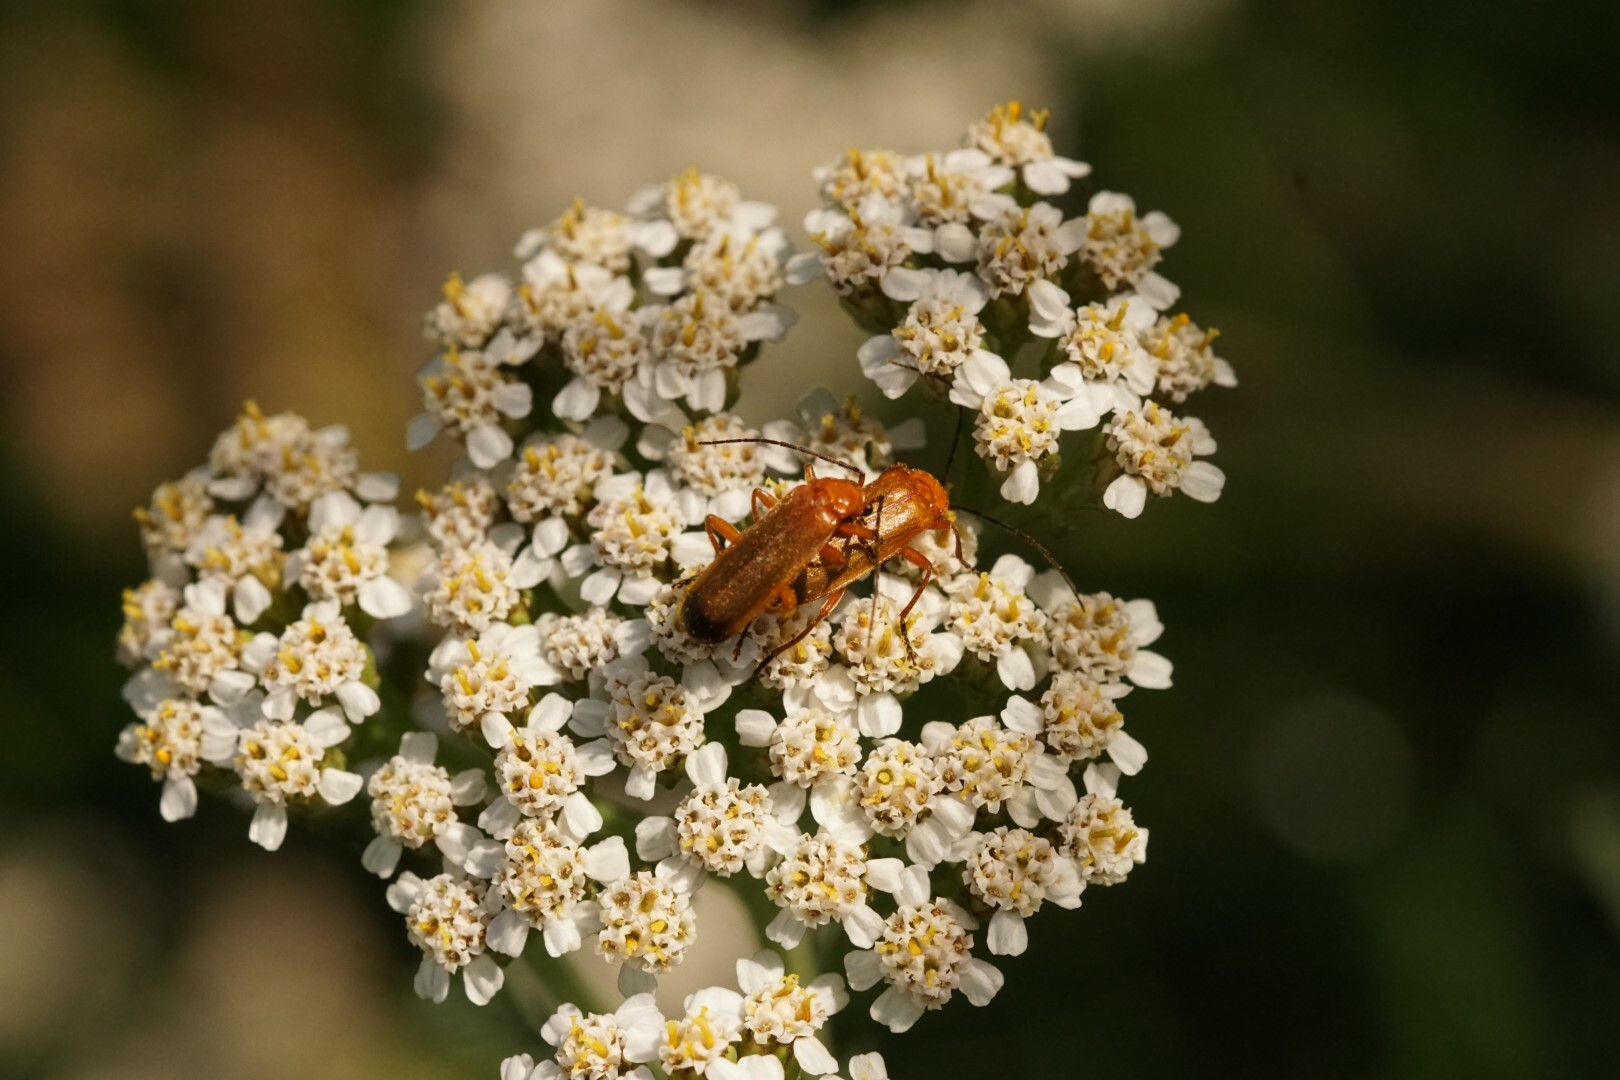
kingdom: Animalia
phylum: Arthropoda
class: Insecta
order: Coleoptera
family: Cantharidae
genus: Rhagonycha
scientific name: Rhagonycha fulva
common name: Common red soldier beetle
